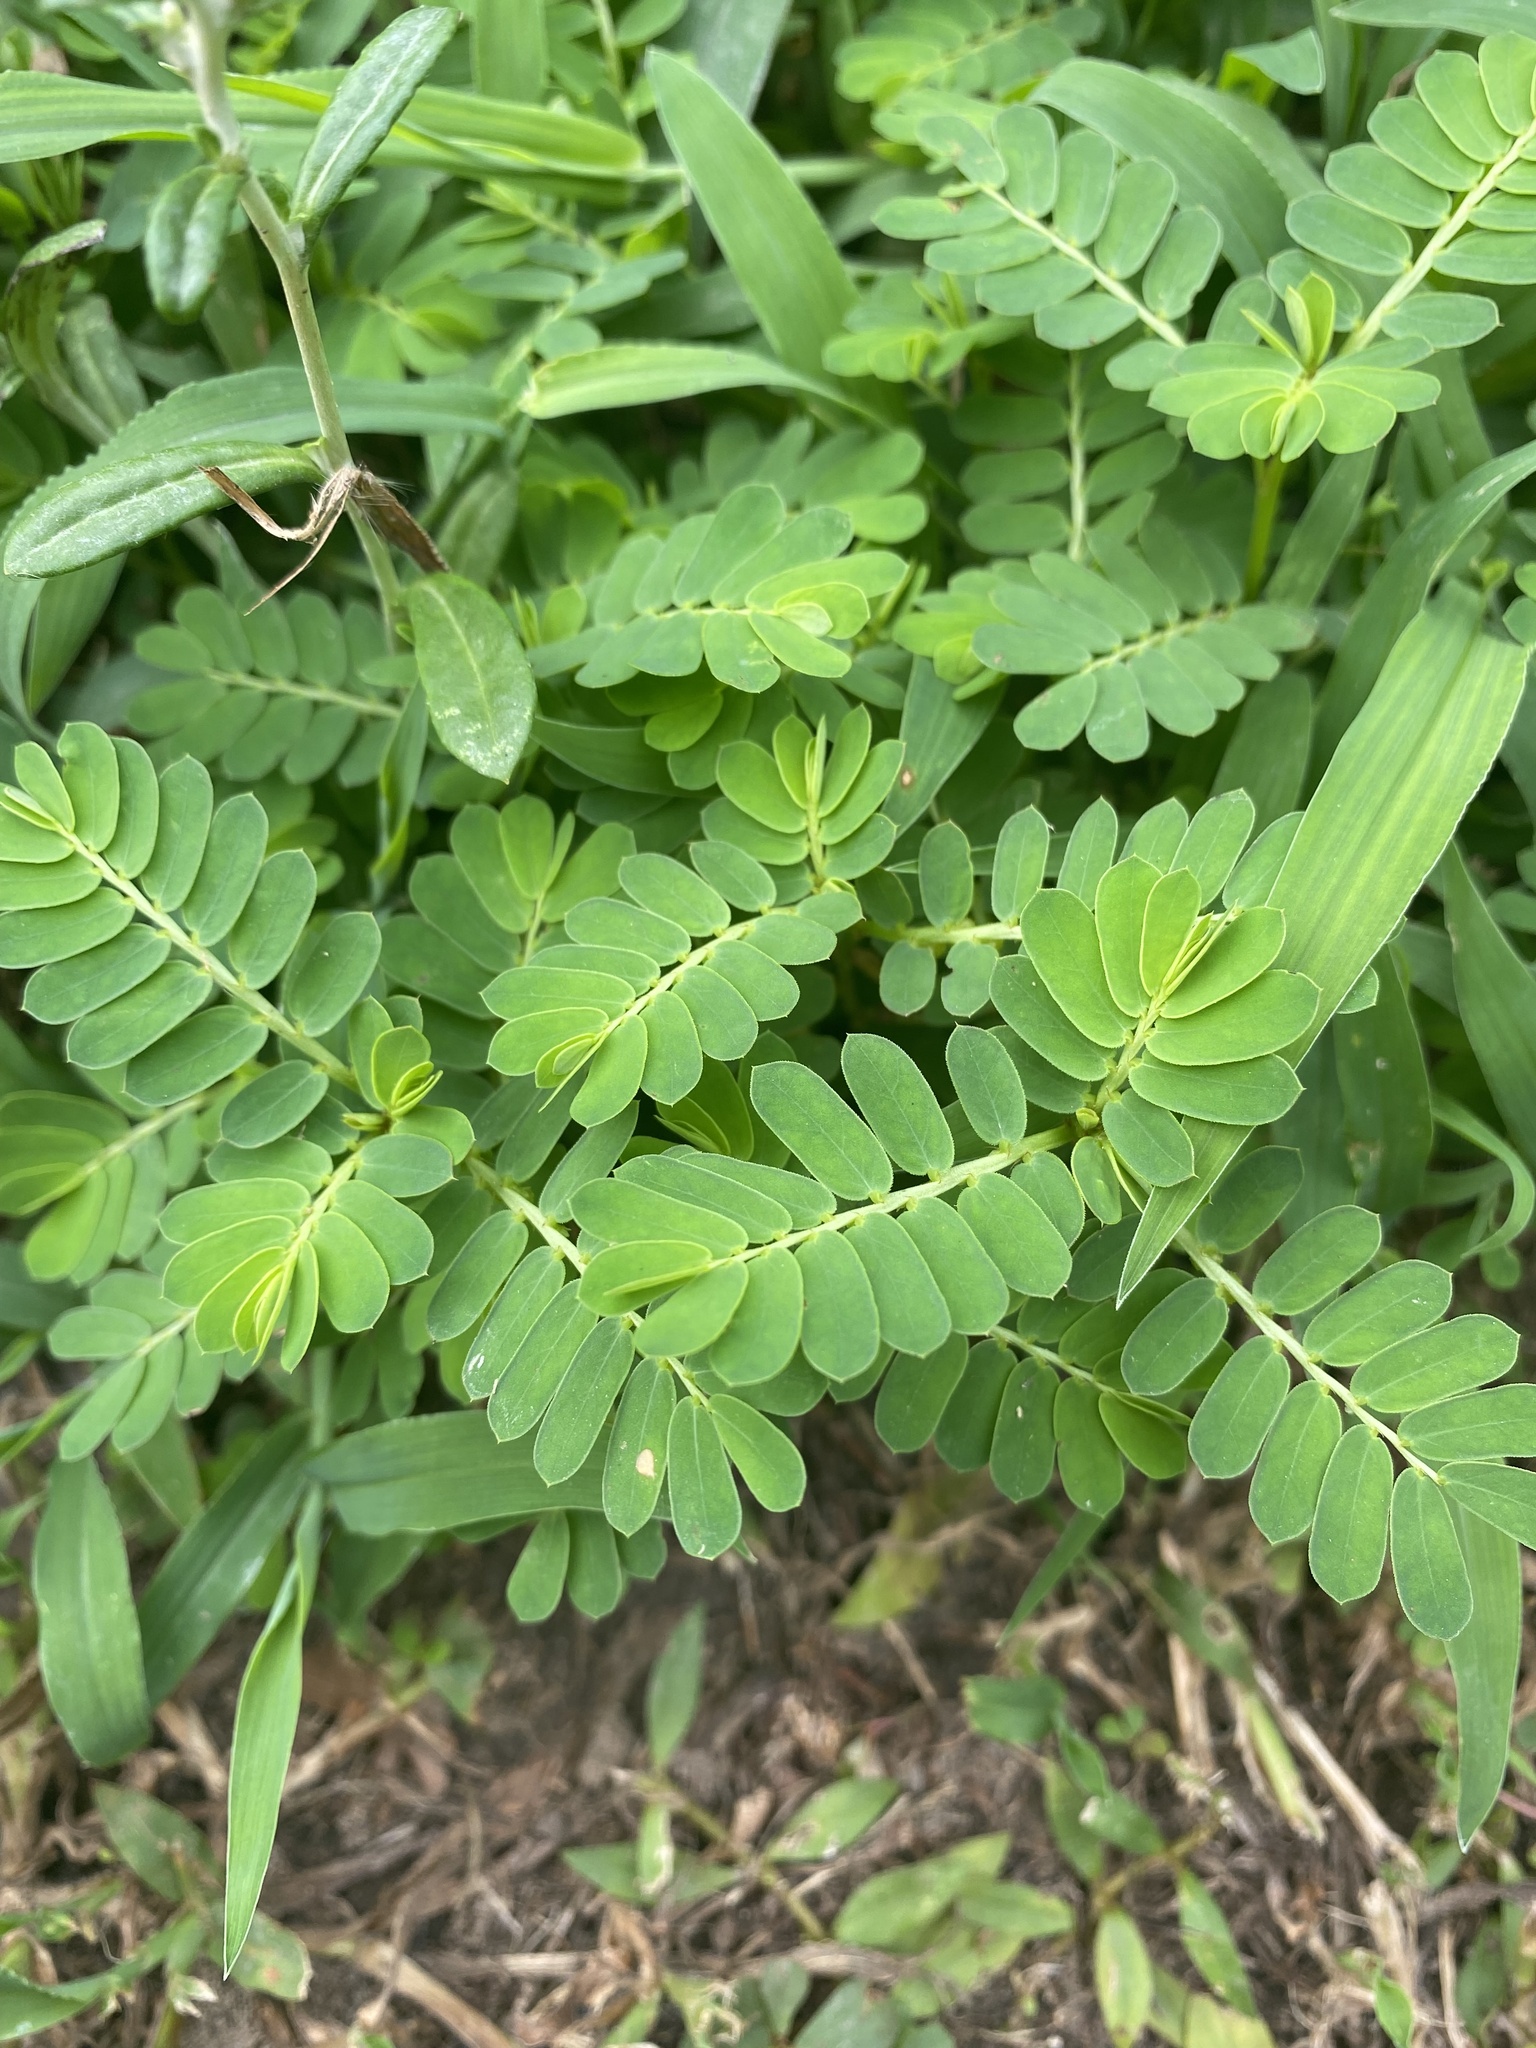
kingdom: Plantae
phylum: Tracheophyta
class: Magnoliopsida
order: Malpighiales
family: Phyllanthaceae
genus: Phyllanthus
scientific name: Phyllanthus urinaria
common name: Chamber bitter
